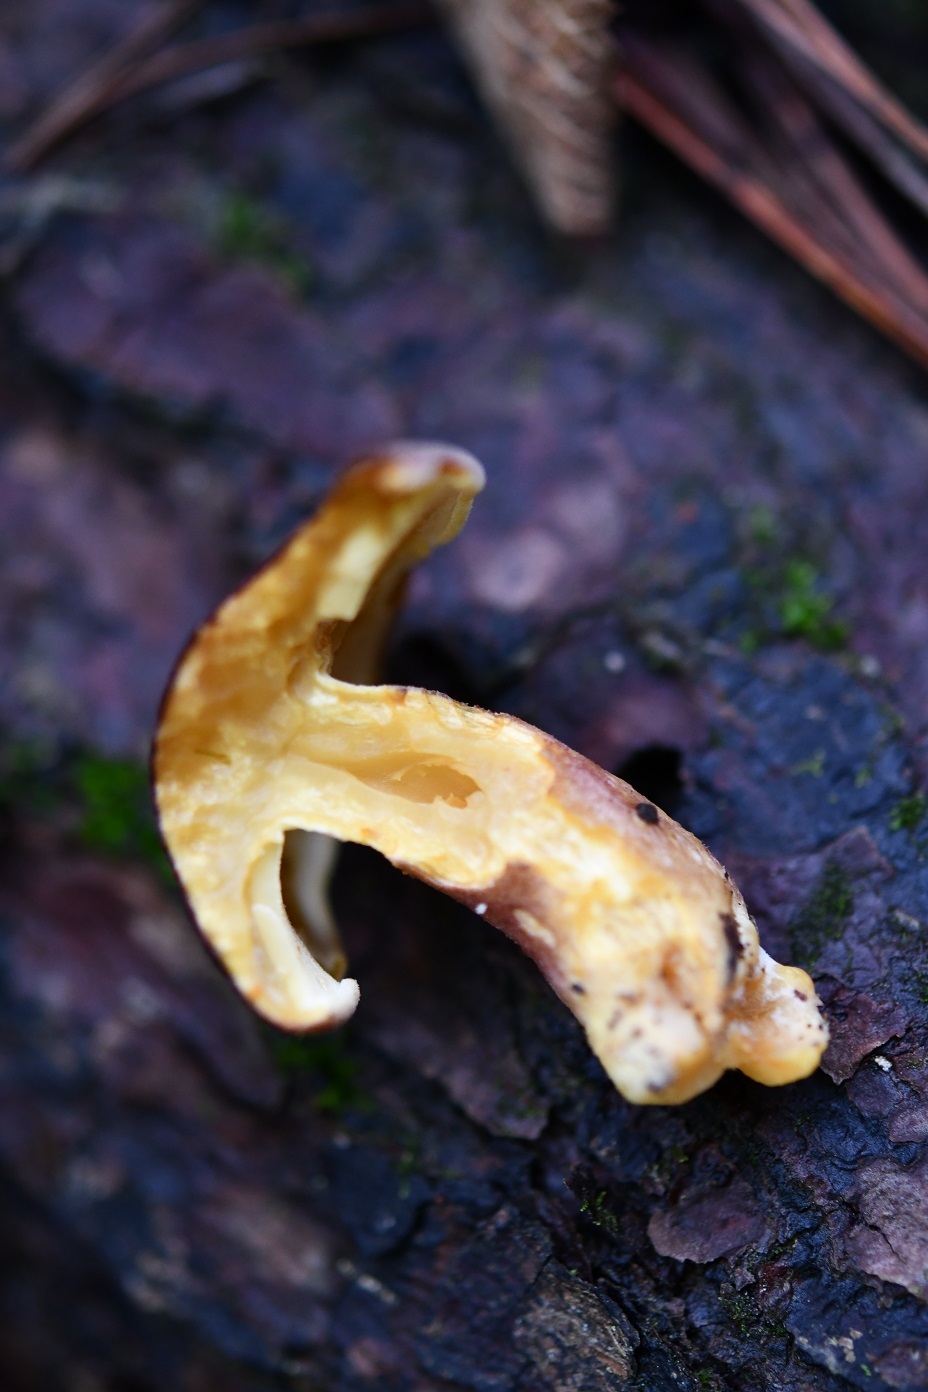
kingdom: Fungi
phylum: Basidiomycota
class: Agaricomycetes
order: Agaricales
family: Tricholomataceae
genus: Tricholomopsis
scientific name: Tricholomopsis rutilans
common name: Plums and custard
